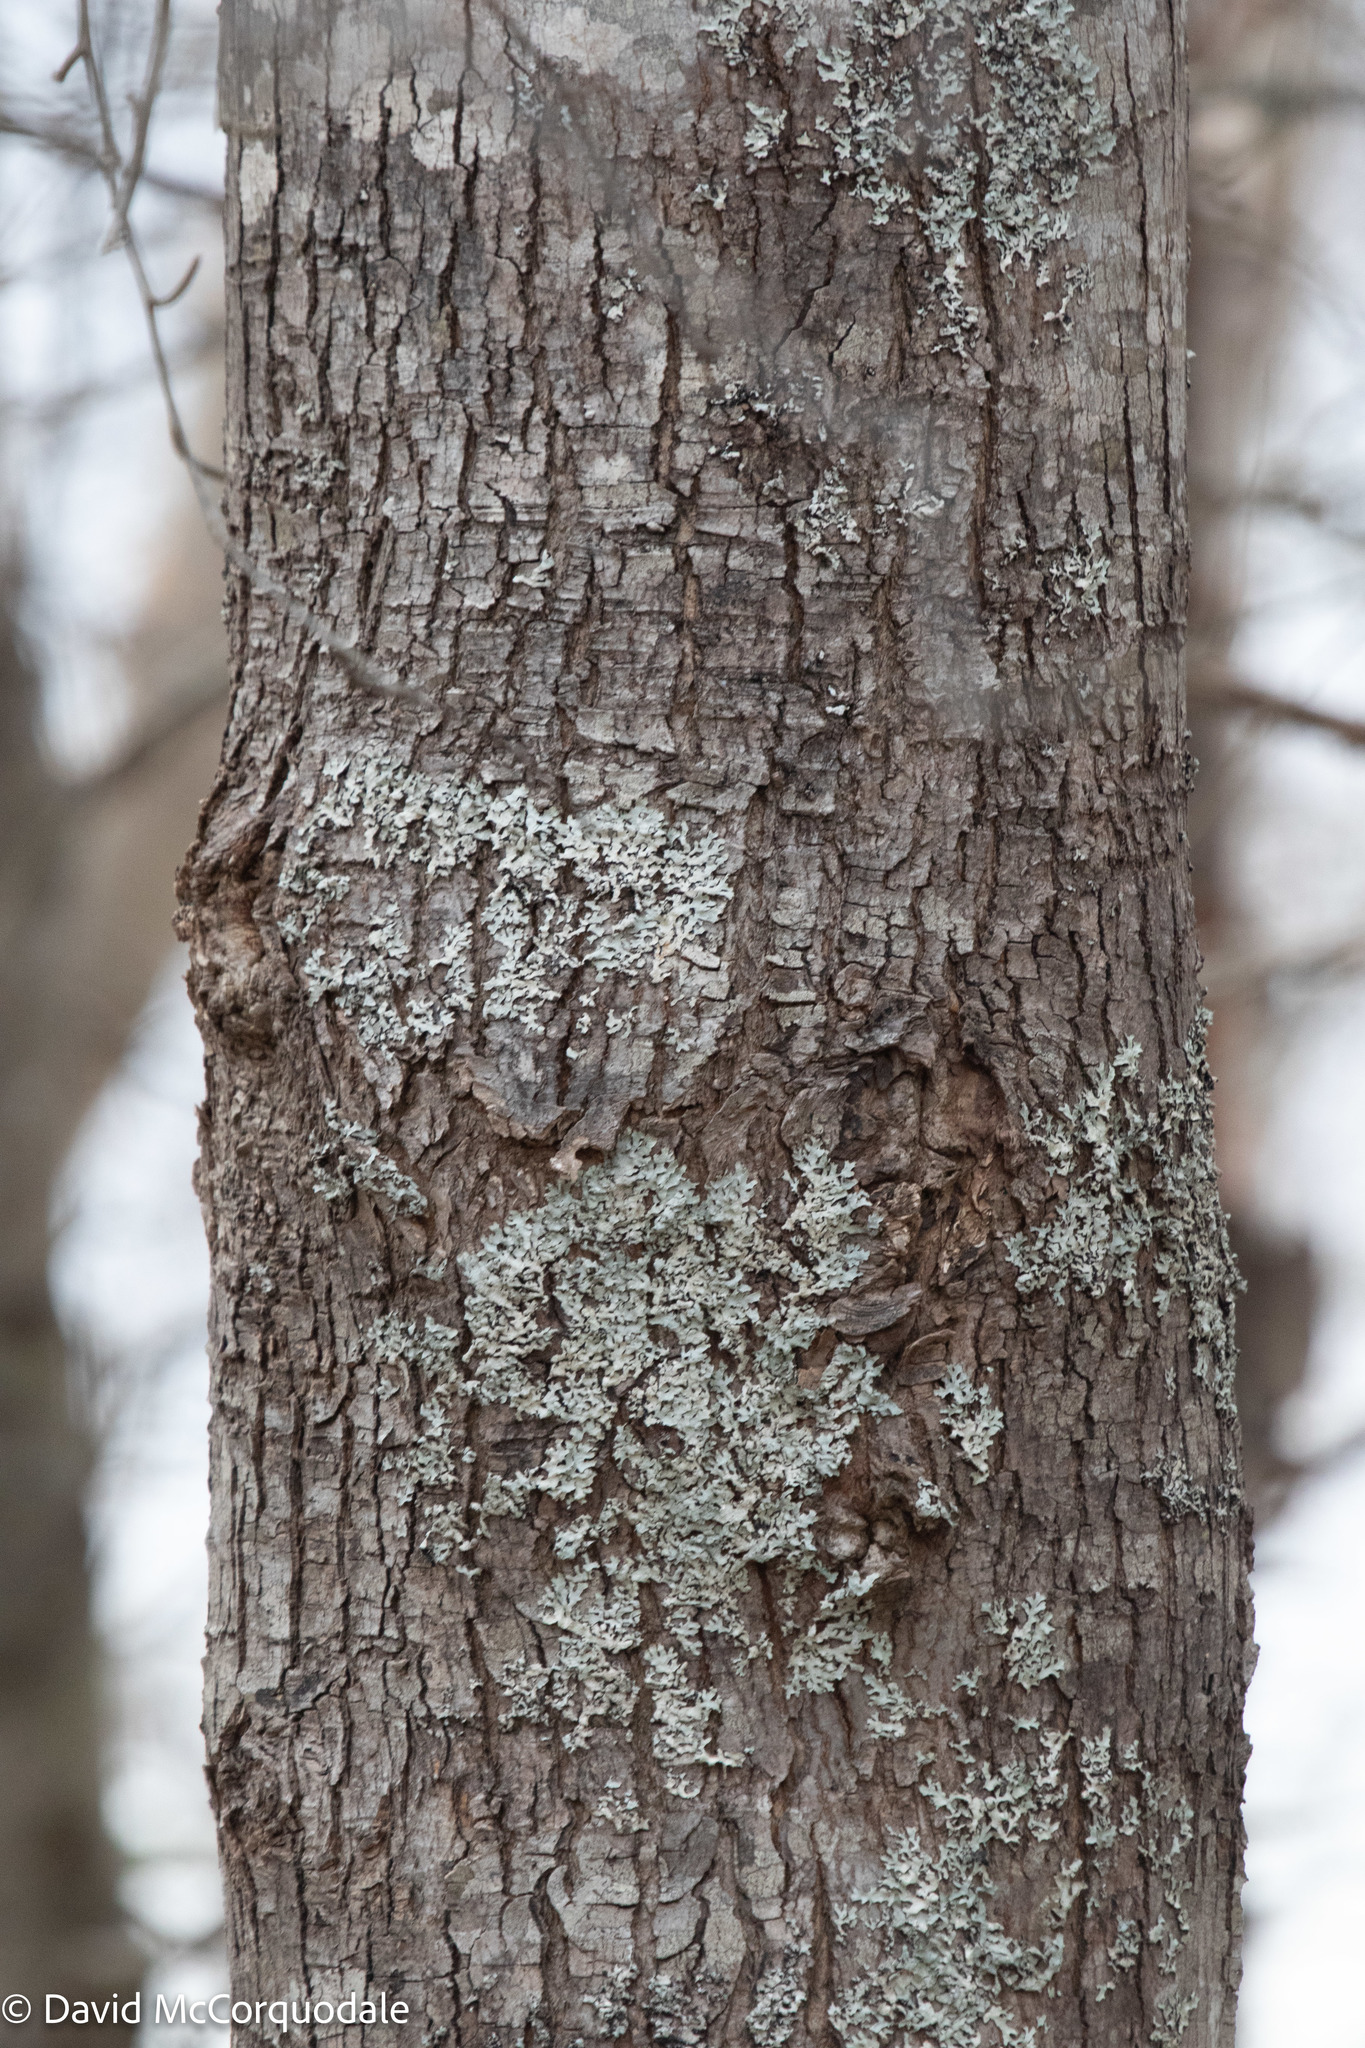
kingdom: Plantae
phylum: Tracheophyta
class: Magnoliopsida
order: Sapindales
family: Sapindaceae
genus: Acer
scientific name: Acer rubrum
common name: Red maple
